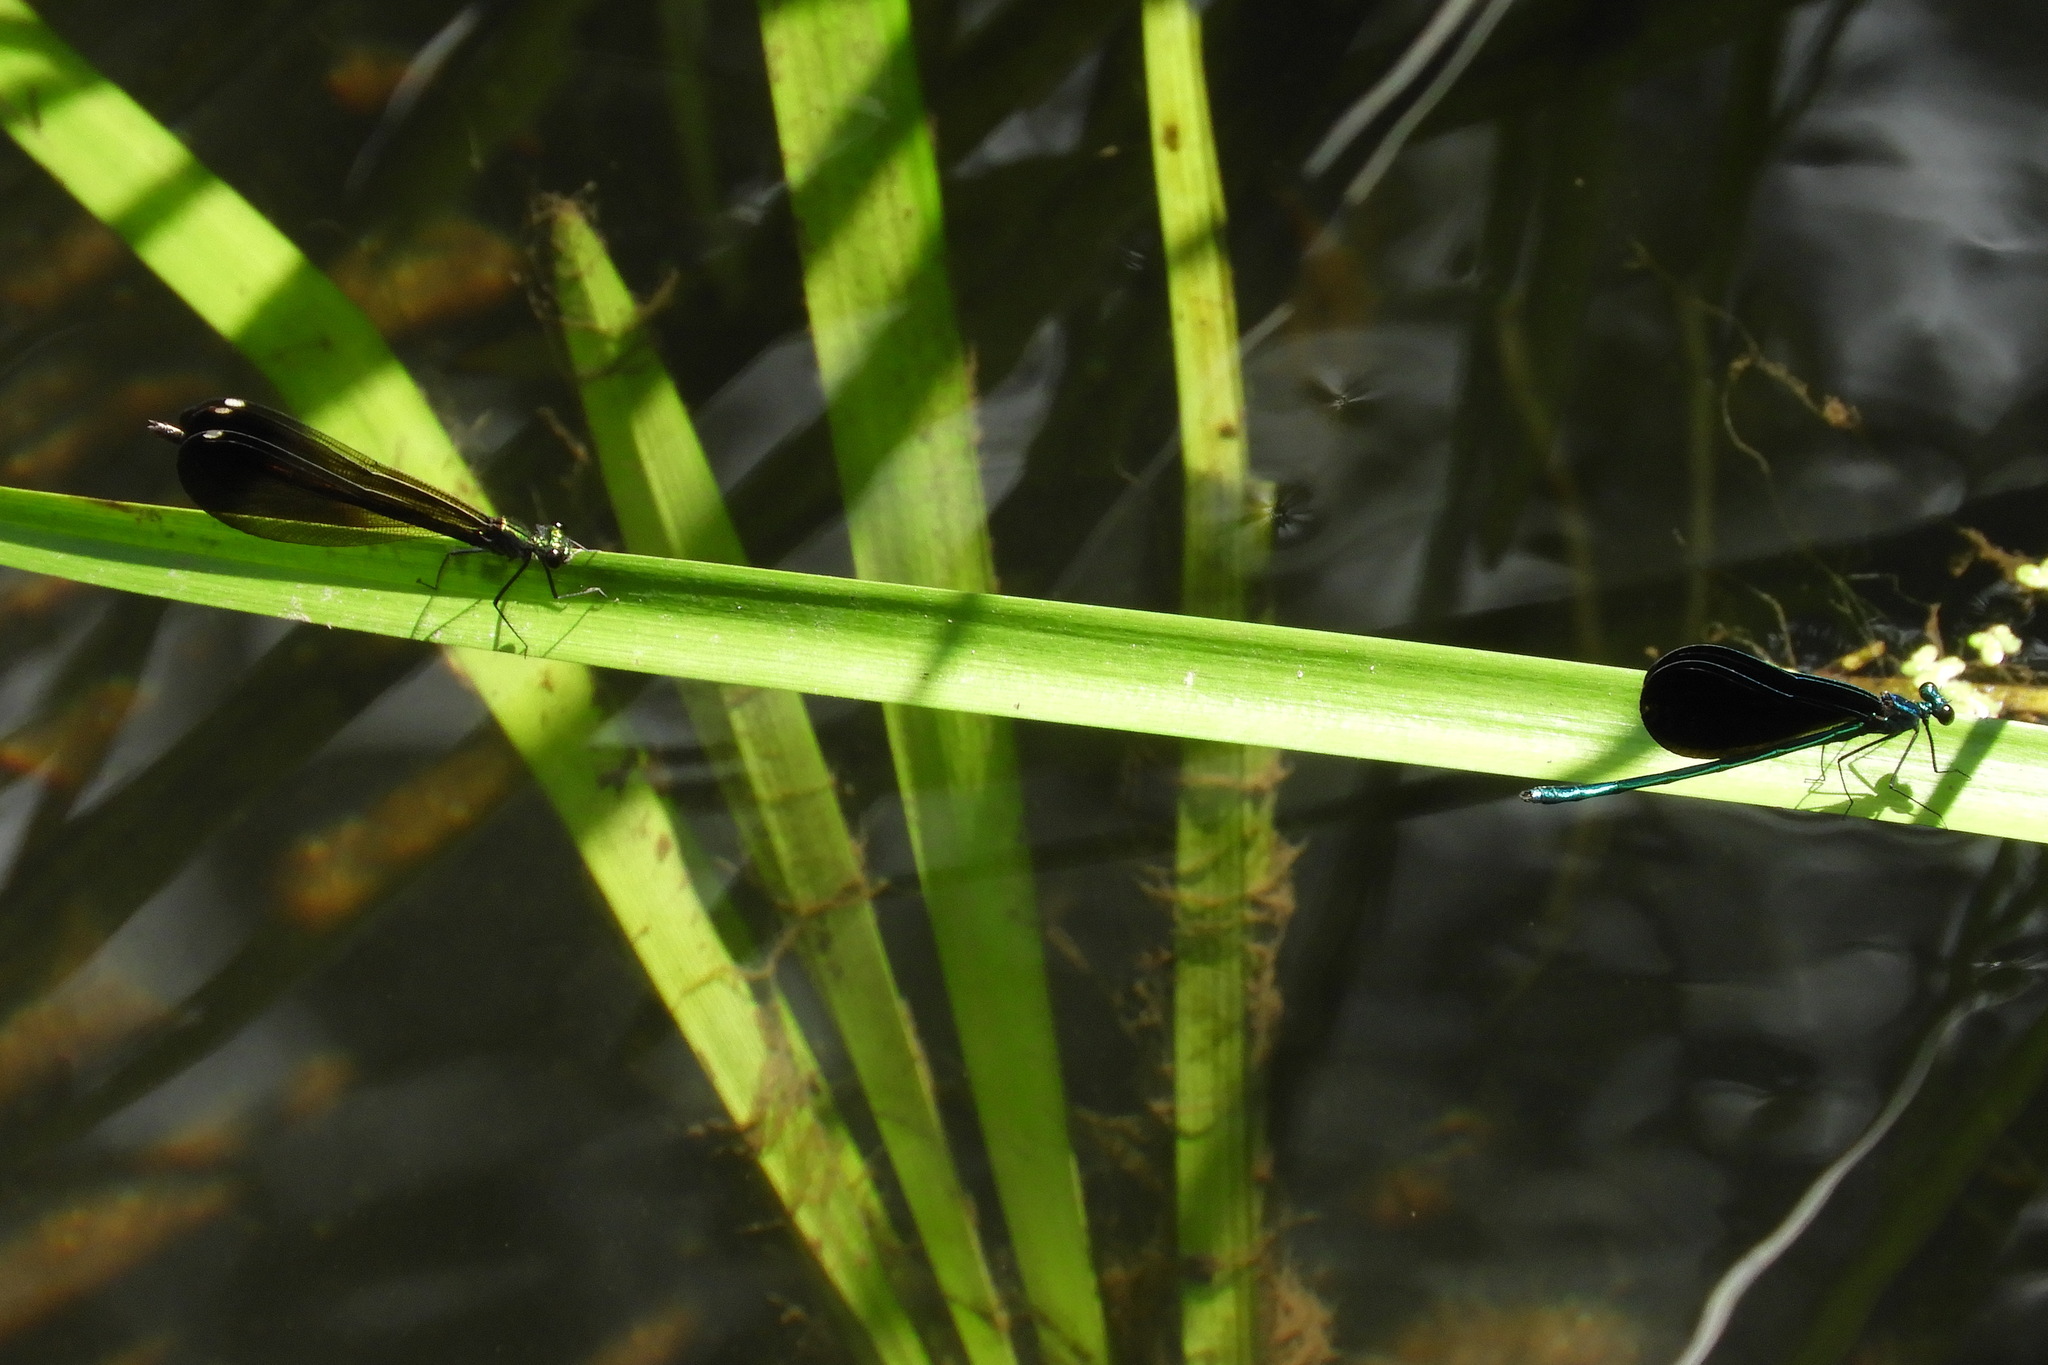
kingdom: Animalia
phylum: Arthropoda
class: Insecta
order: Odonata
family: Calopterygidae
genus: Calopteryx
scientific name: Calopteryx maculata
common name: Ebony jewelwing
